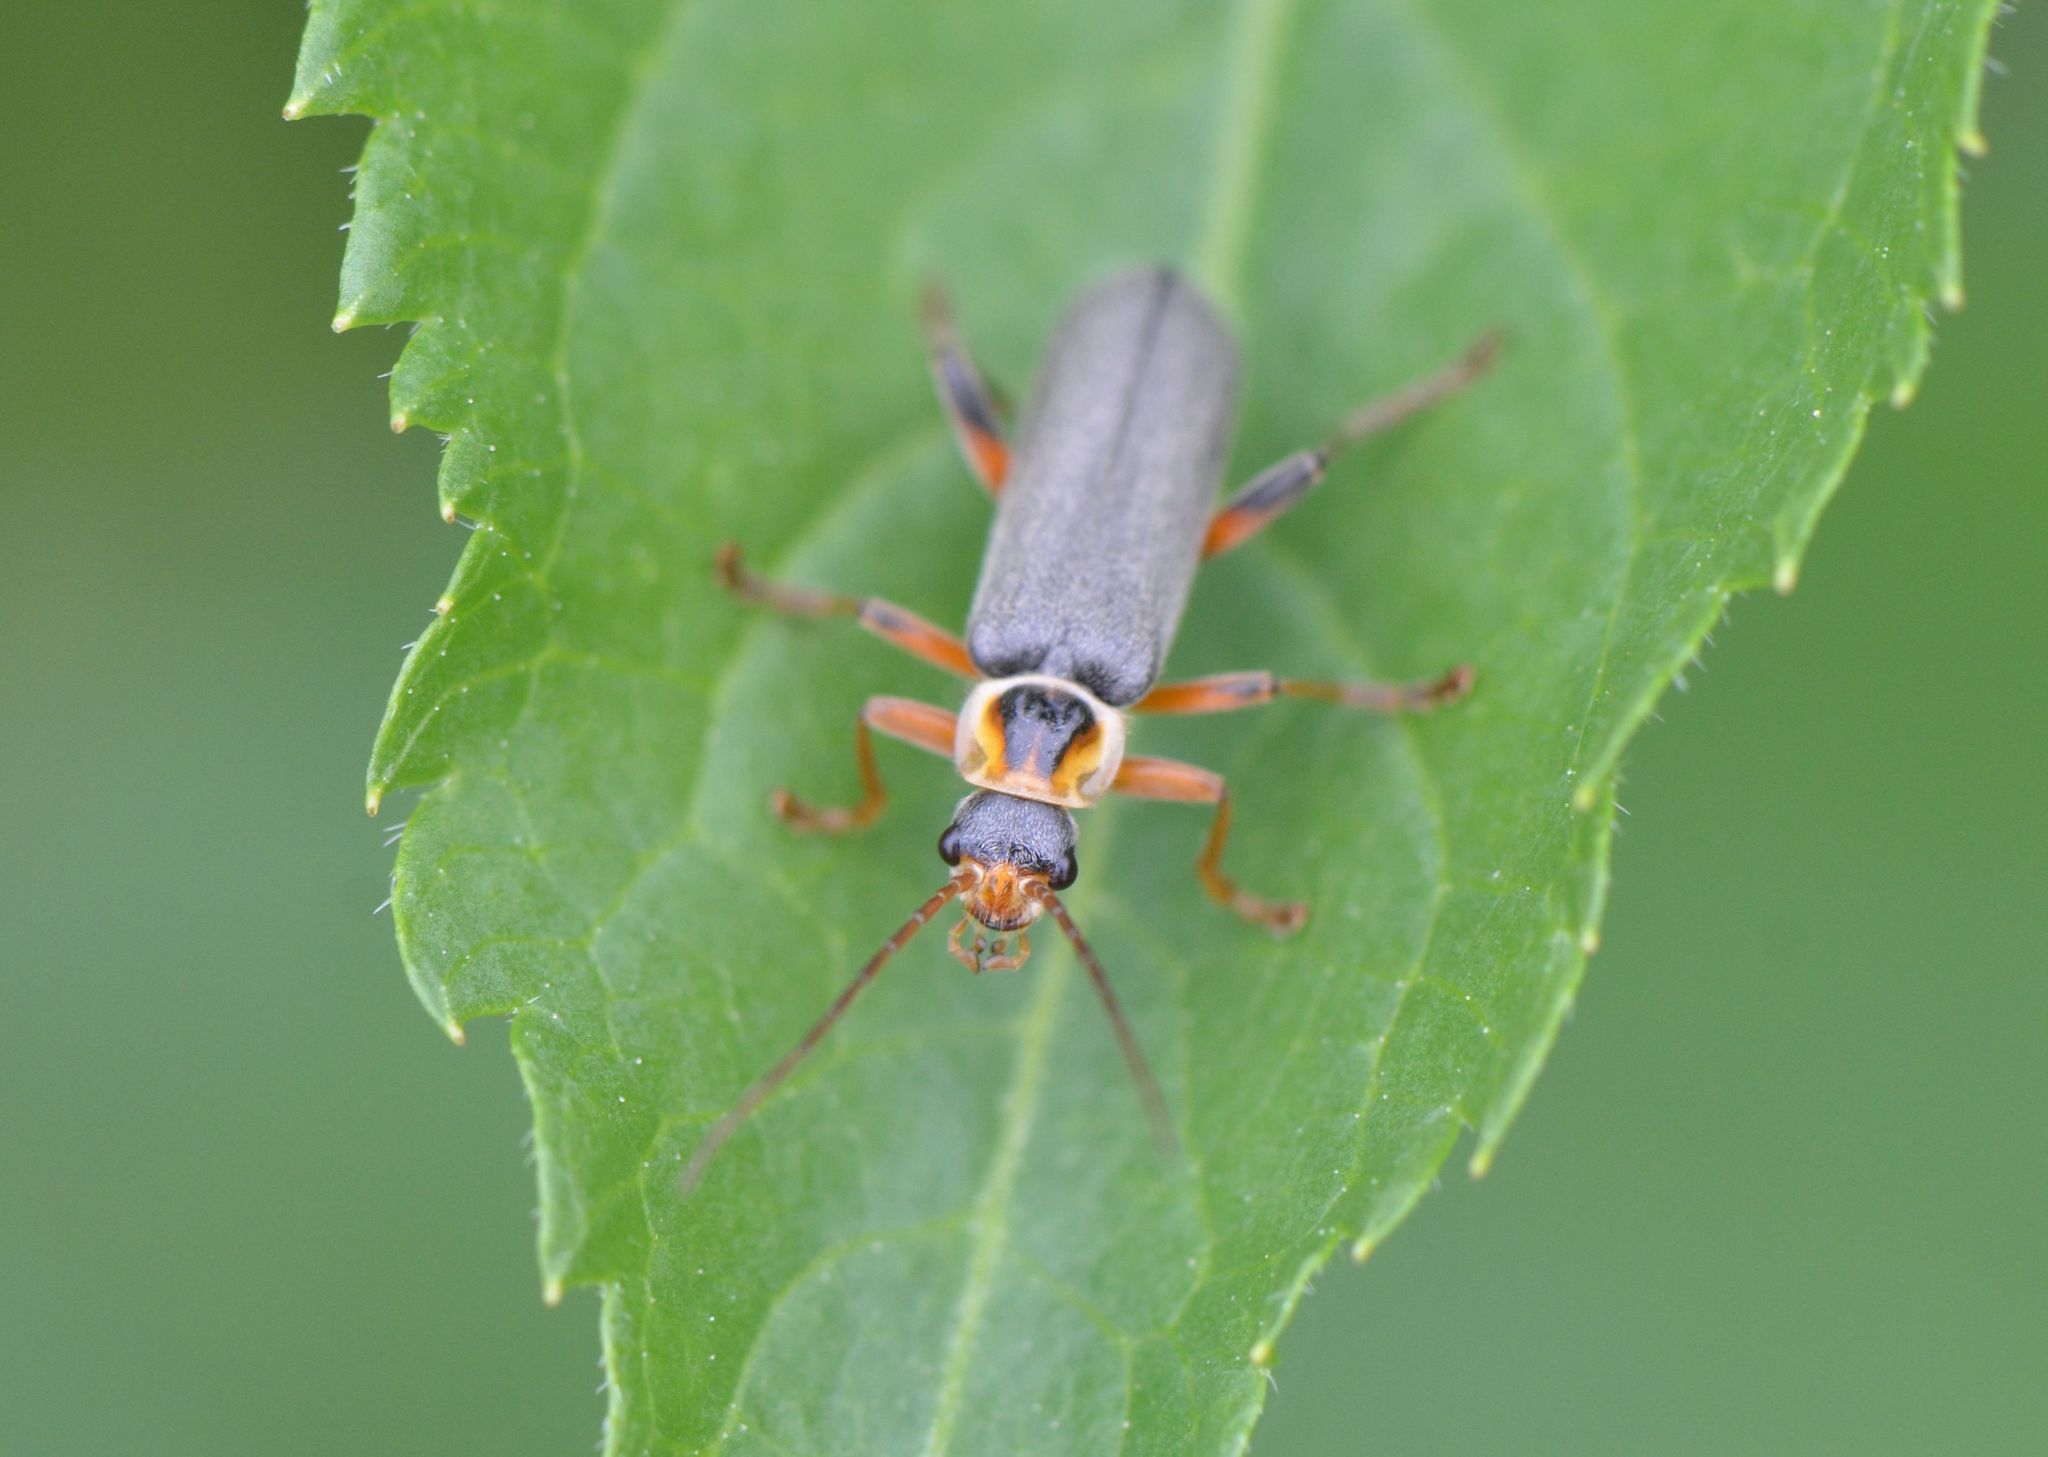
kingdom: Animalia
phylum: Arthropoda
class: Insecta
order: Coleoptera
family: Cantharidae
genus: Cantharis
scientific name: Cantharis nigricans
